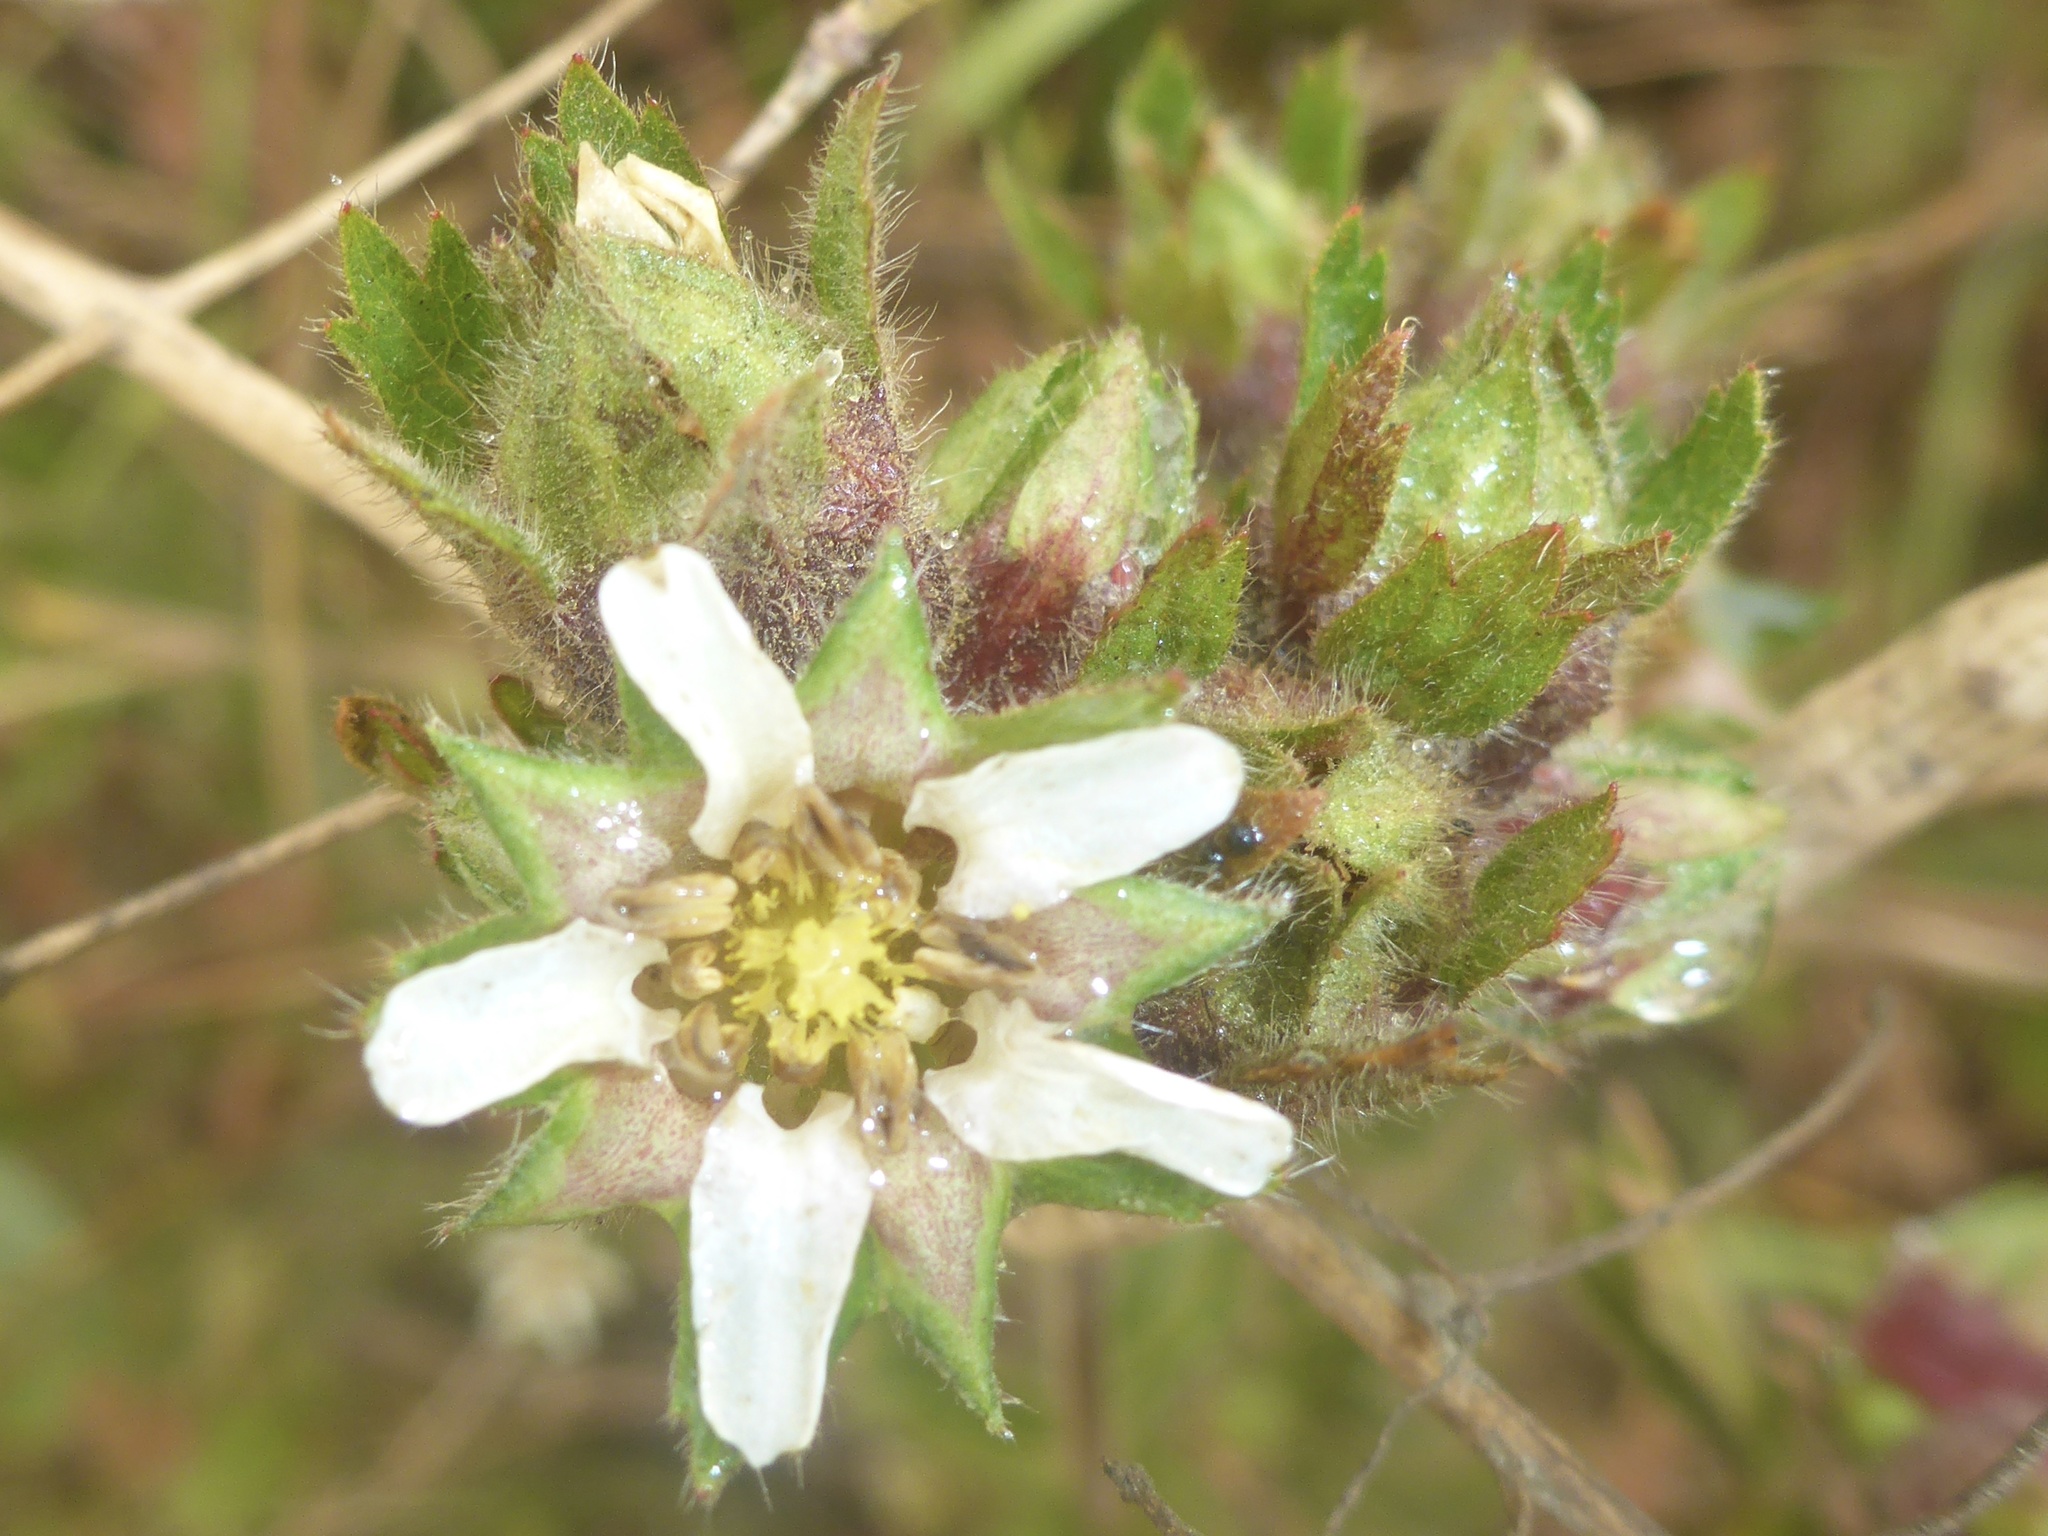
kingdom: Plantae
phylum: Tracheophyta
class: Magnoliopsida
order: Rosales
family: Rosaceae
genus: Potentilla
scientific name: Potentilla californica
